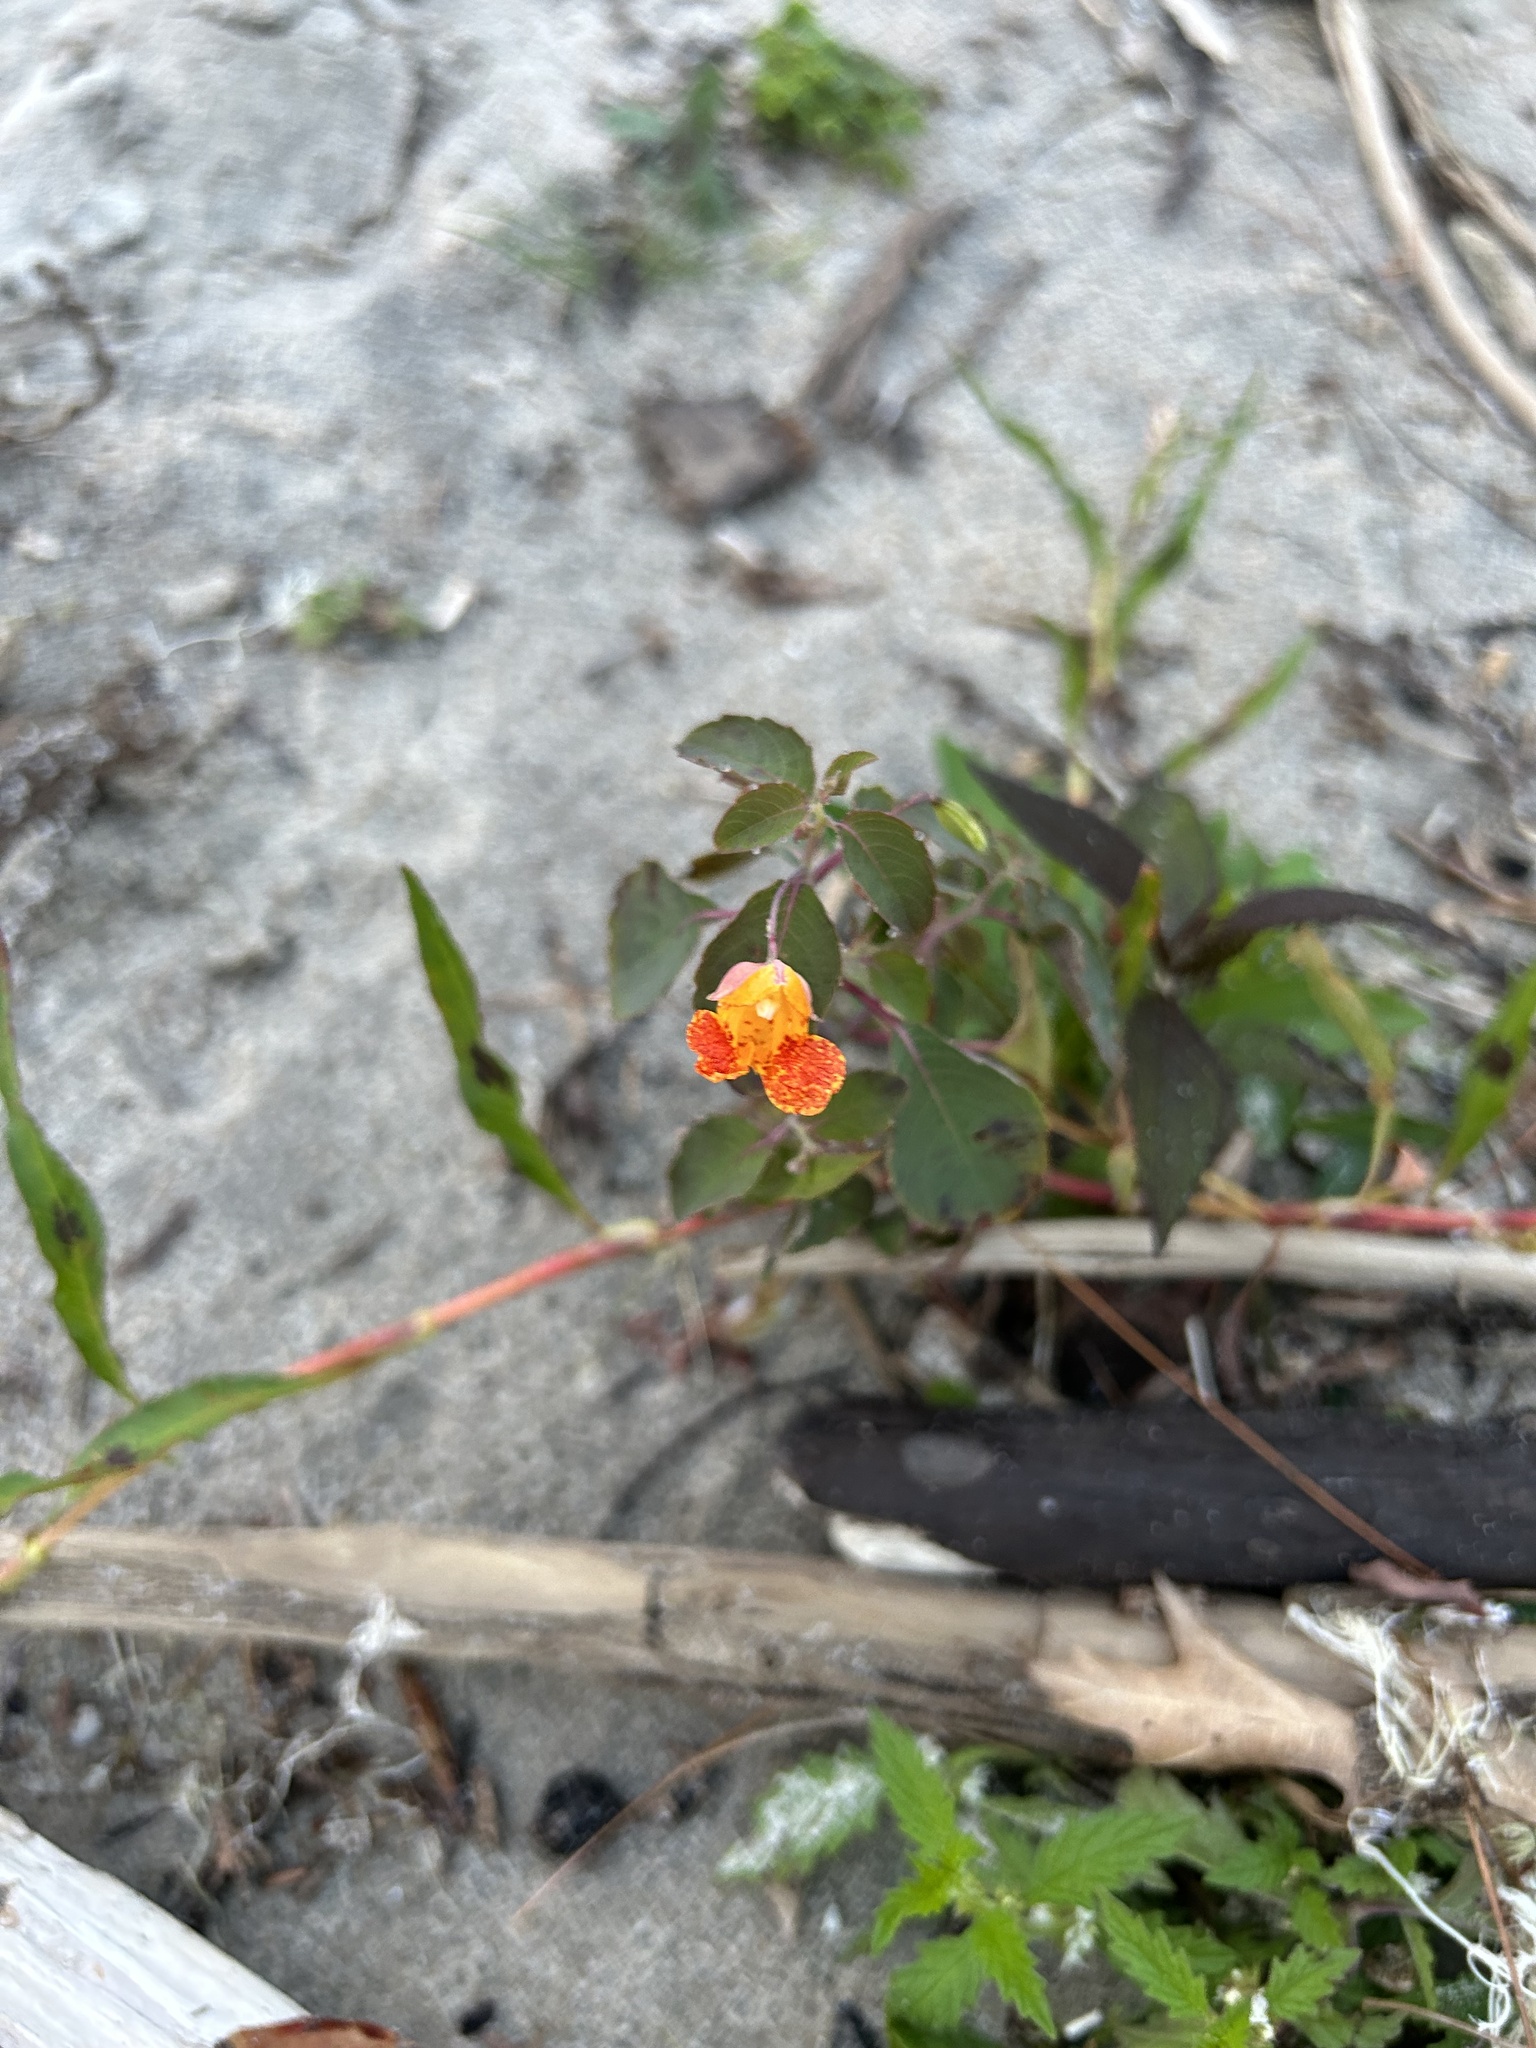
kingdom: Plantae
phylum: Tracheophyta
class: Magnoliopsida
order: Ericales
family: Balsaminaceae
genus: Impatiens
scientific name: Impatiens capensis
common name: Orange balsam
